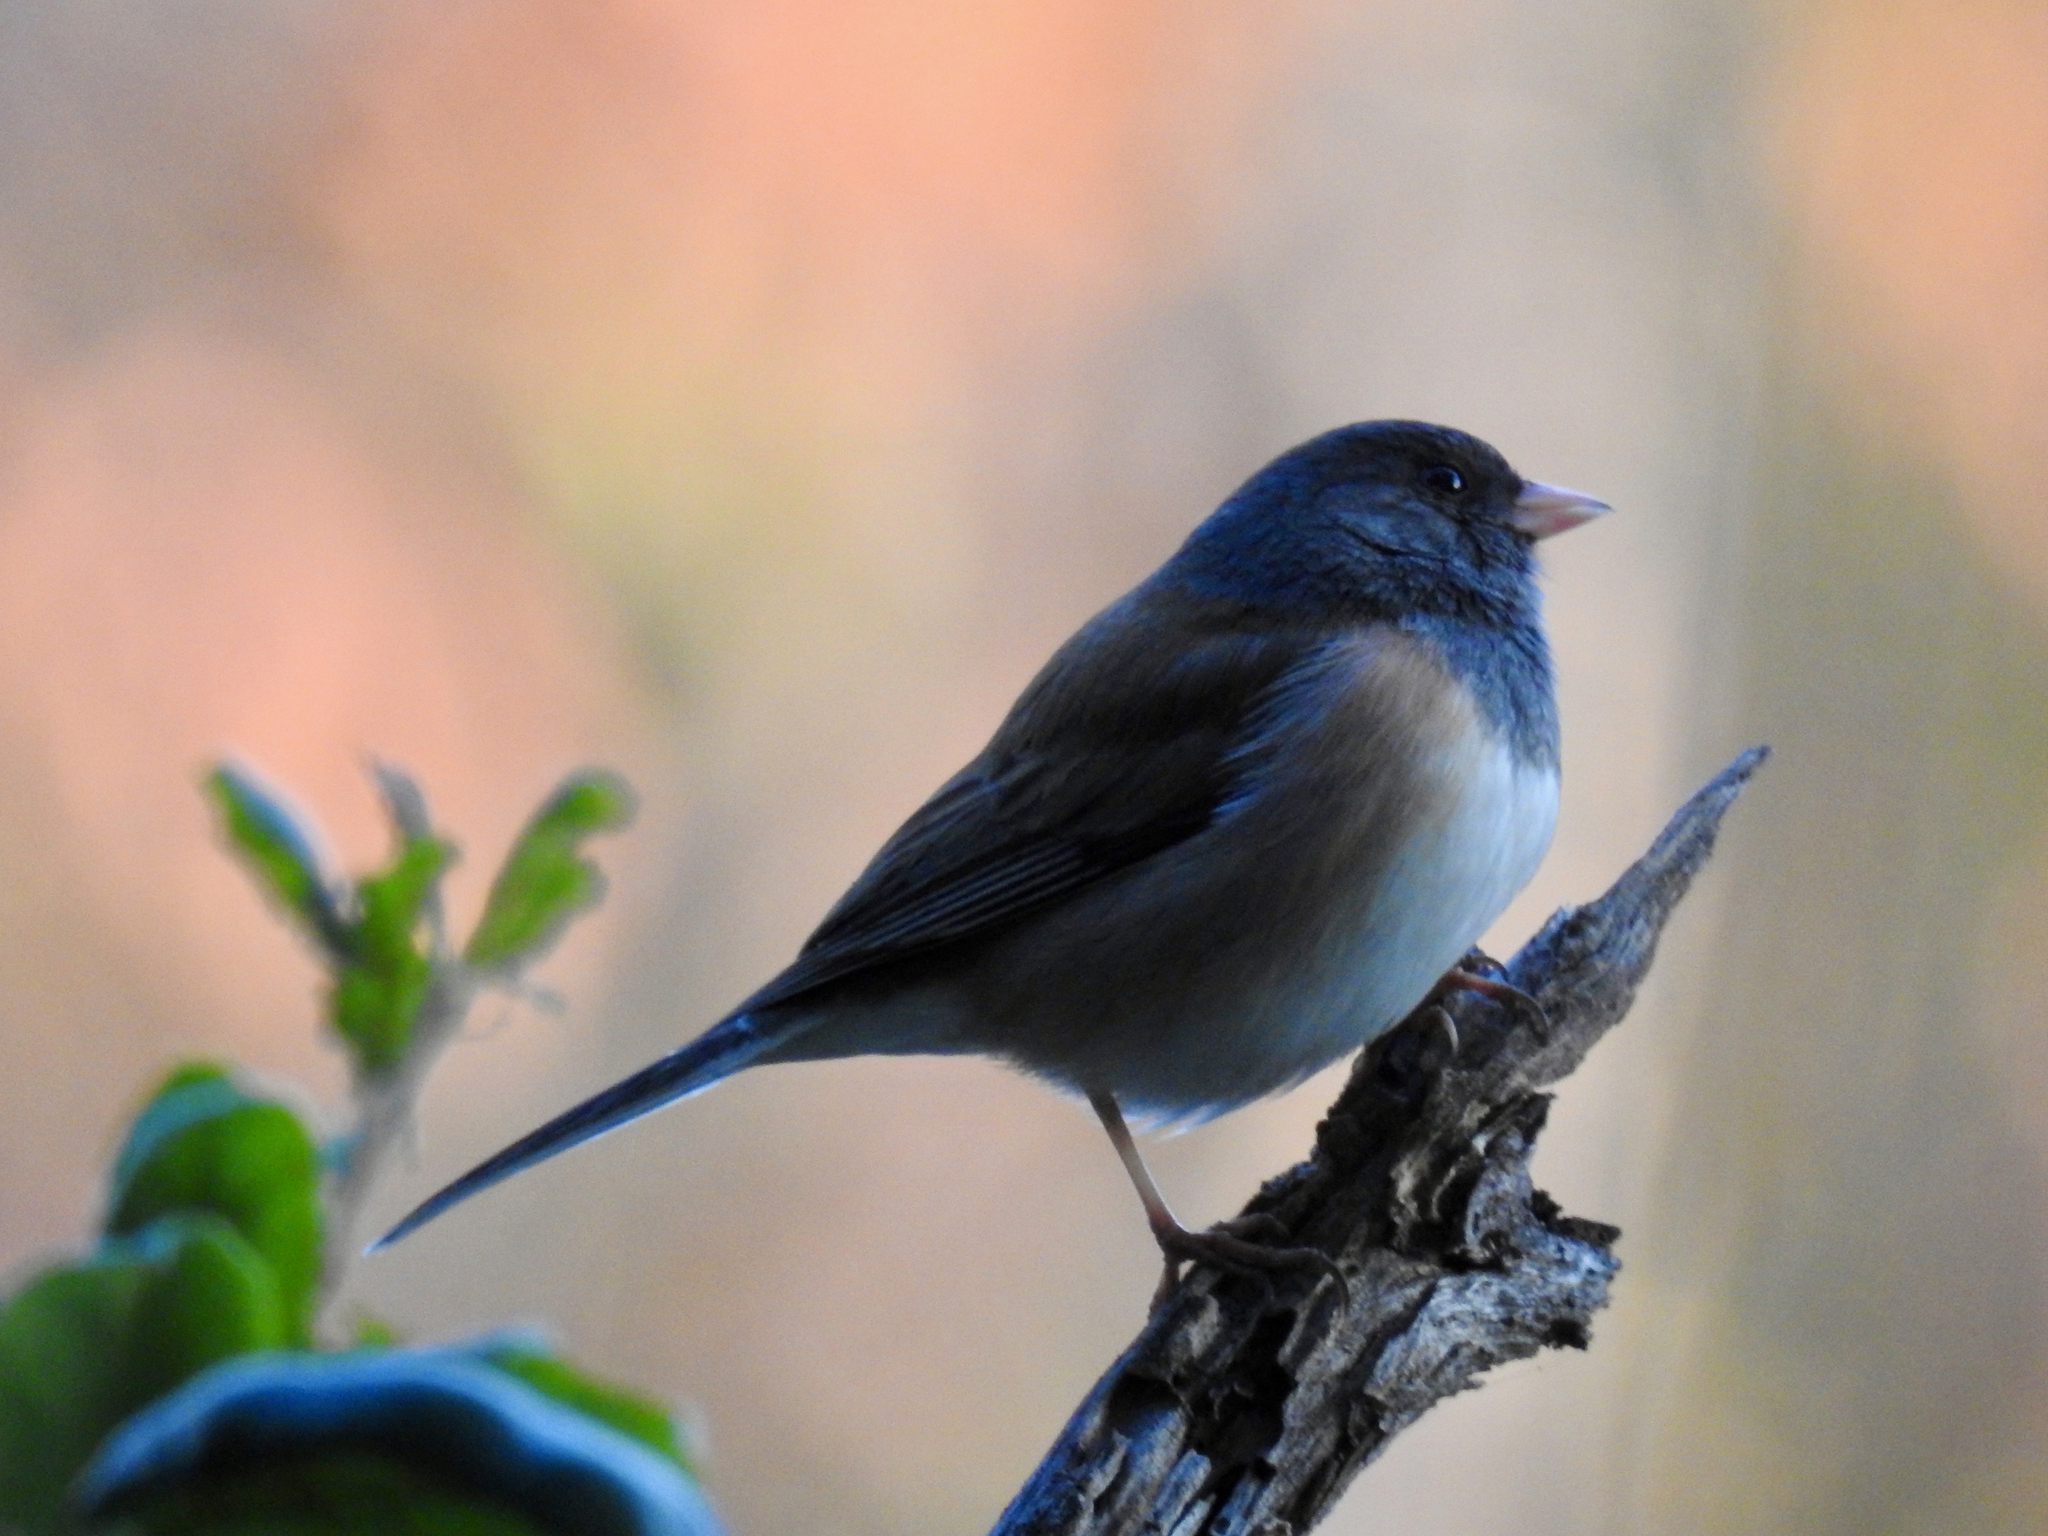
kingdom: Animalia
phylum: Chordata
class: Aves
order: Passeriformes
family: Passerellidae
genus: Junco
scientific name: Junco hyemalis
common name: Dark-eyed junco
